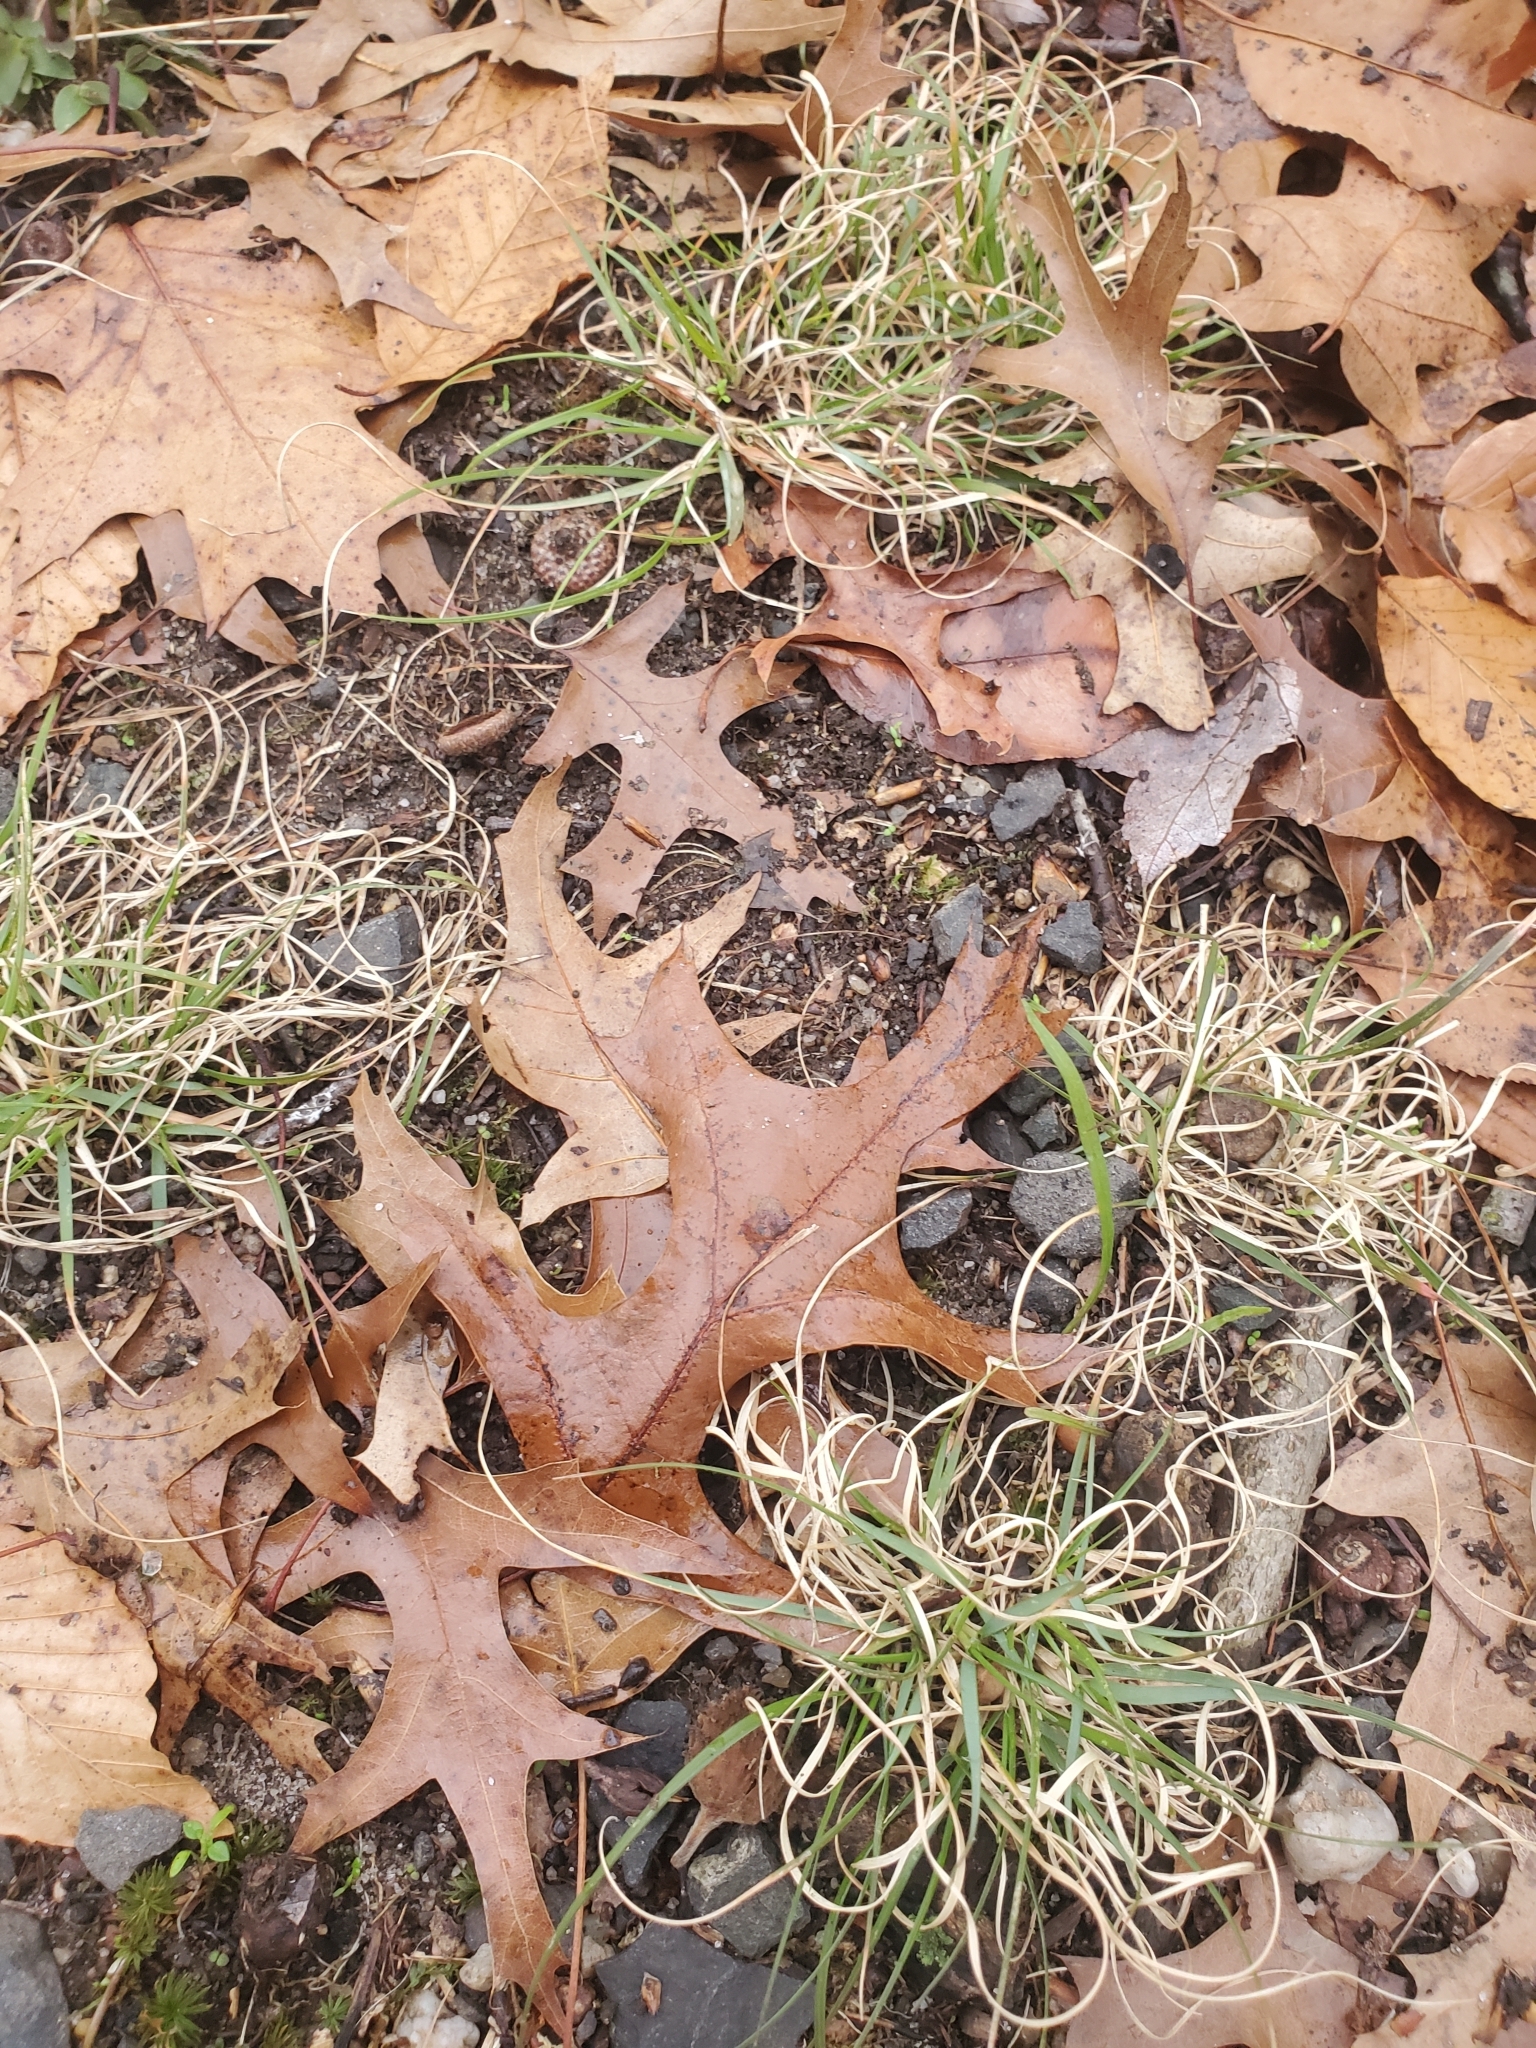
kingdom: Plantae
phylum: Tracheophyta
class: Liliopsida
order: Poales
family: Poaceae
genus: Danthonia
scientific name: Danthonia spicata
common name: Common wild oatgrass
